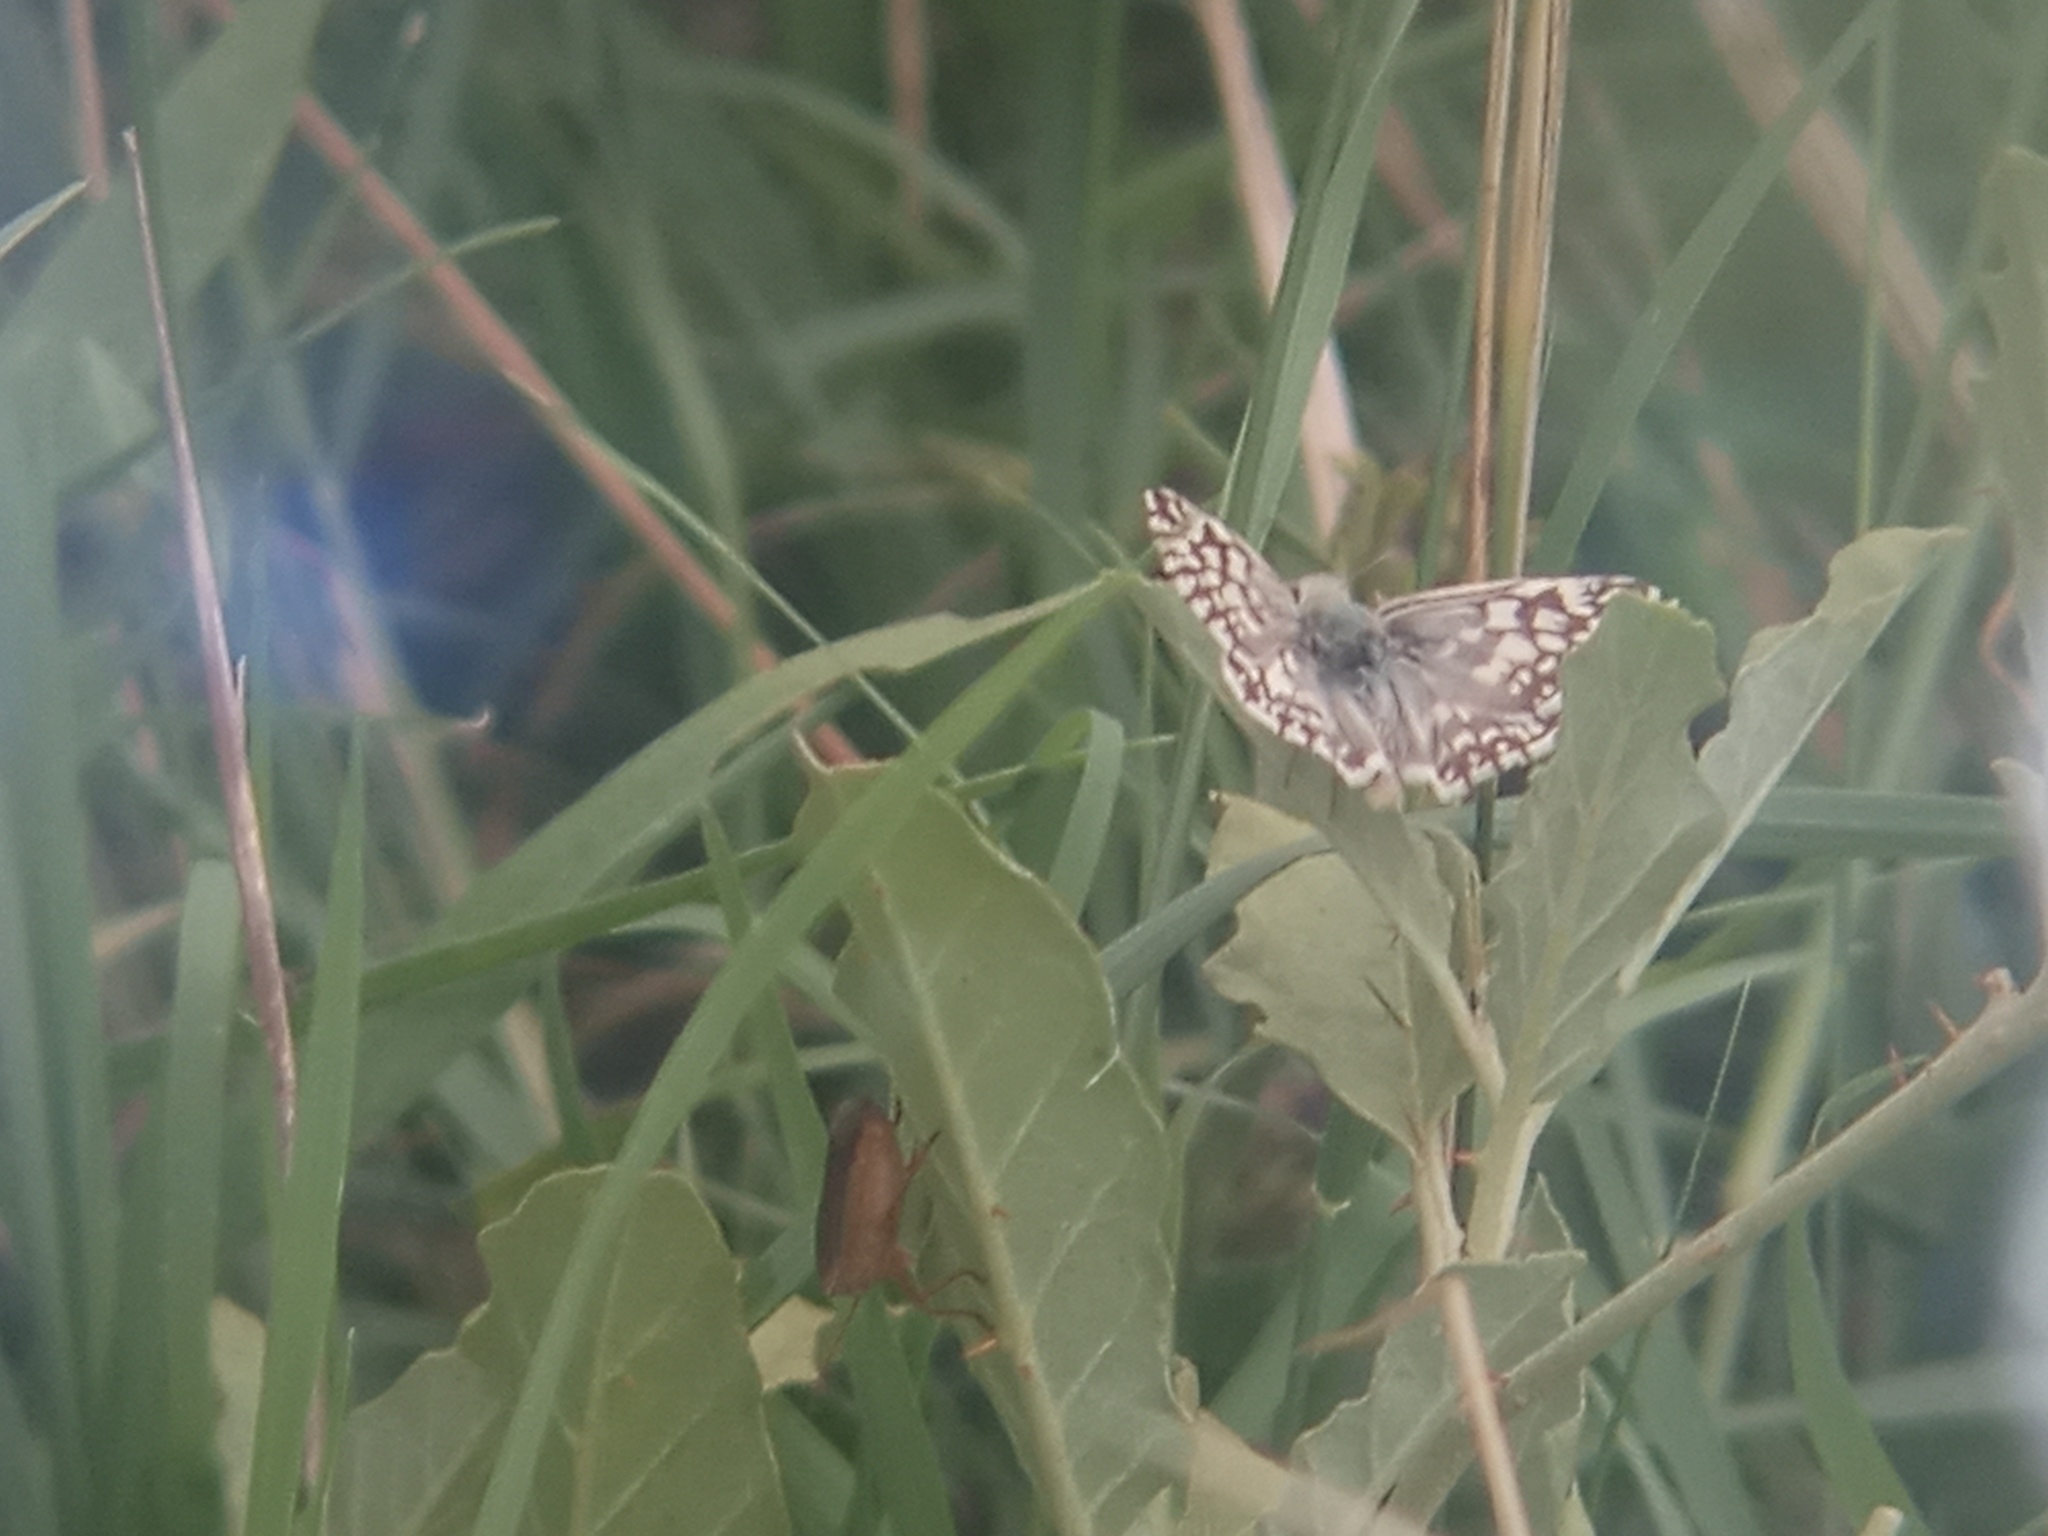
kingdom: Animalia
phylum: Arthropoda
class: Insecta
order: Lepidoptera
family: Hesperiidae
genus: Heliopetes
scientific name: Heliopetes americanus
